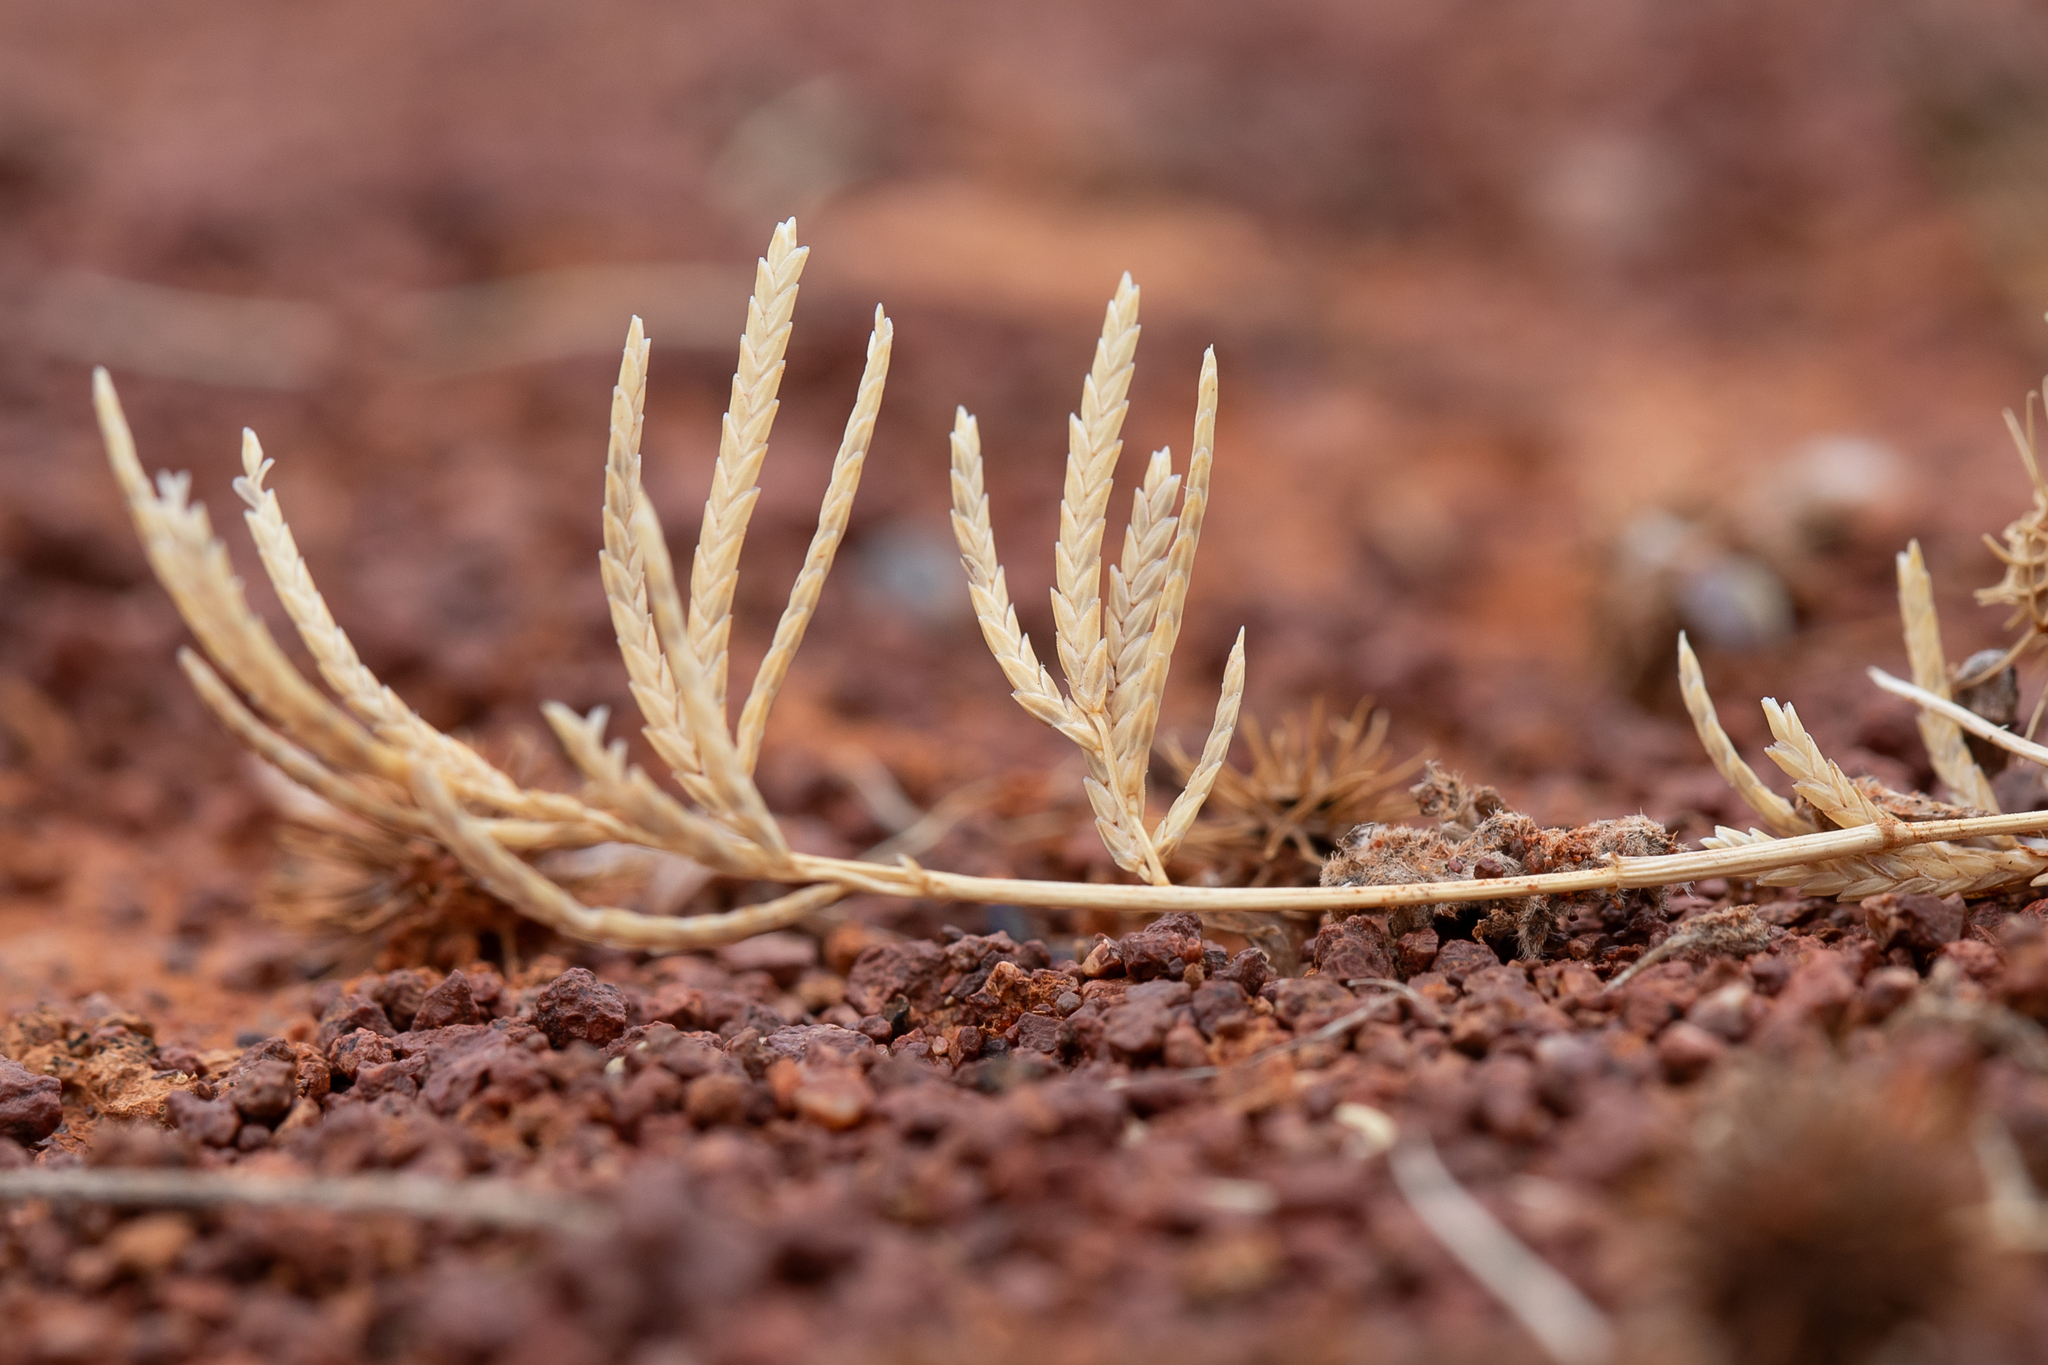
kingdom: Plantae
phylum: Tracheophyta
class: Liliopsida
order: Poales
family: Poaceae
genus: Eragrostis
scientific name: Eragrostis dielsii
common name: Lovegrass
